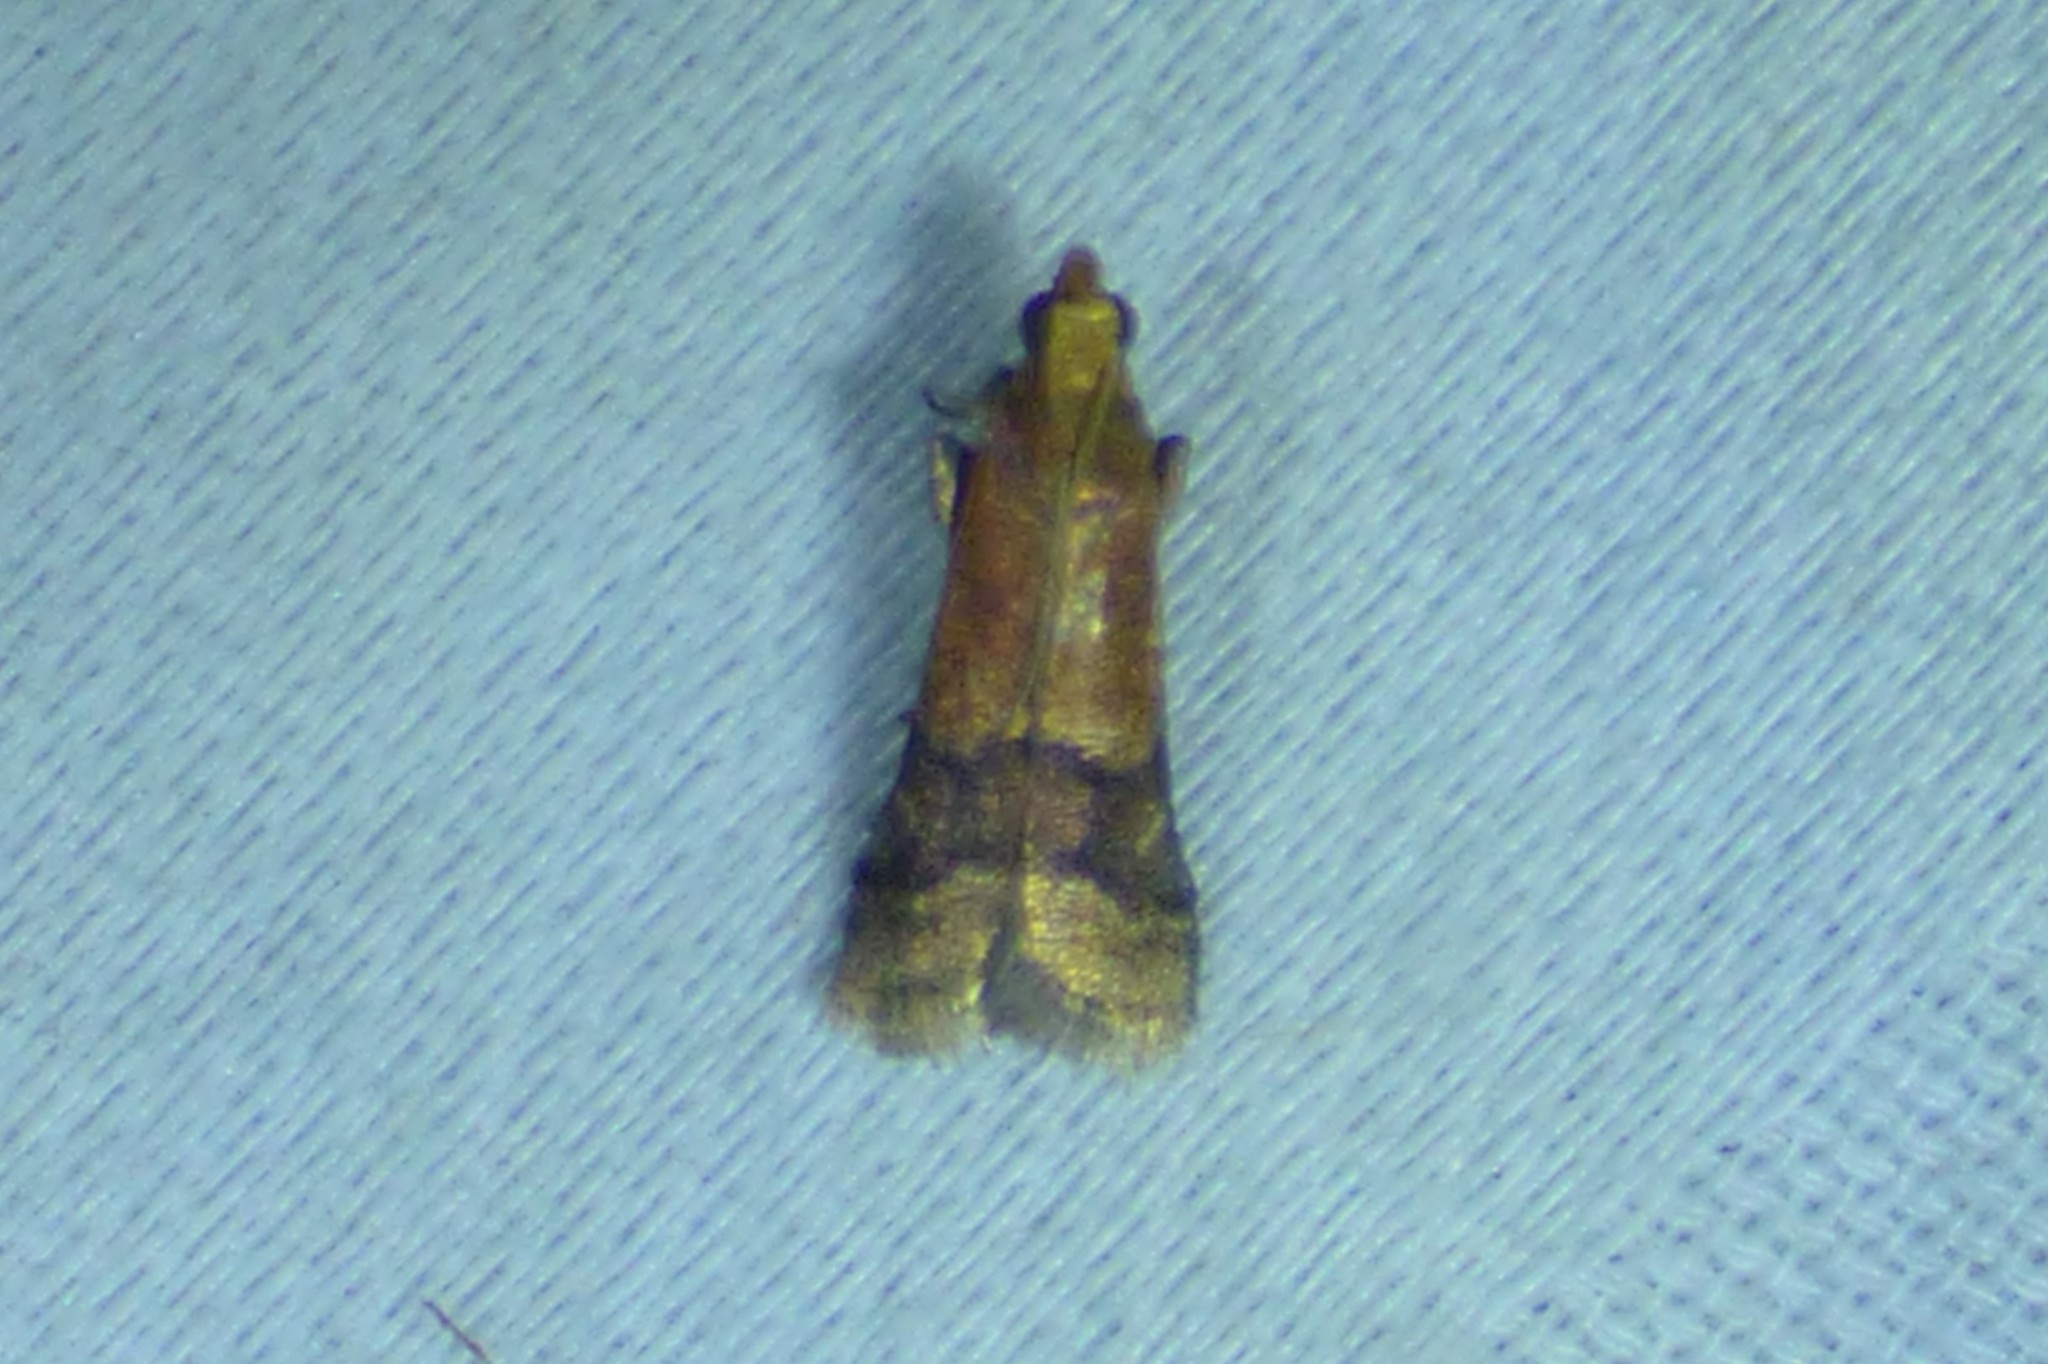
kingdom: Animalia
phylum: Arthropoda
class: Insecta
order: Lepidoptera
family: Pyralidae
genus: Eulogia
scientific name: Eulogia ochrifrontella
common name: Broad-banded eulogia moth
